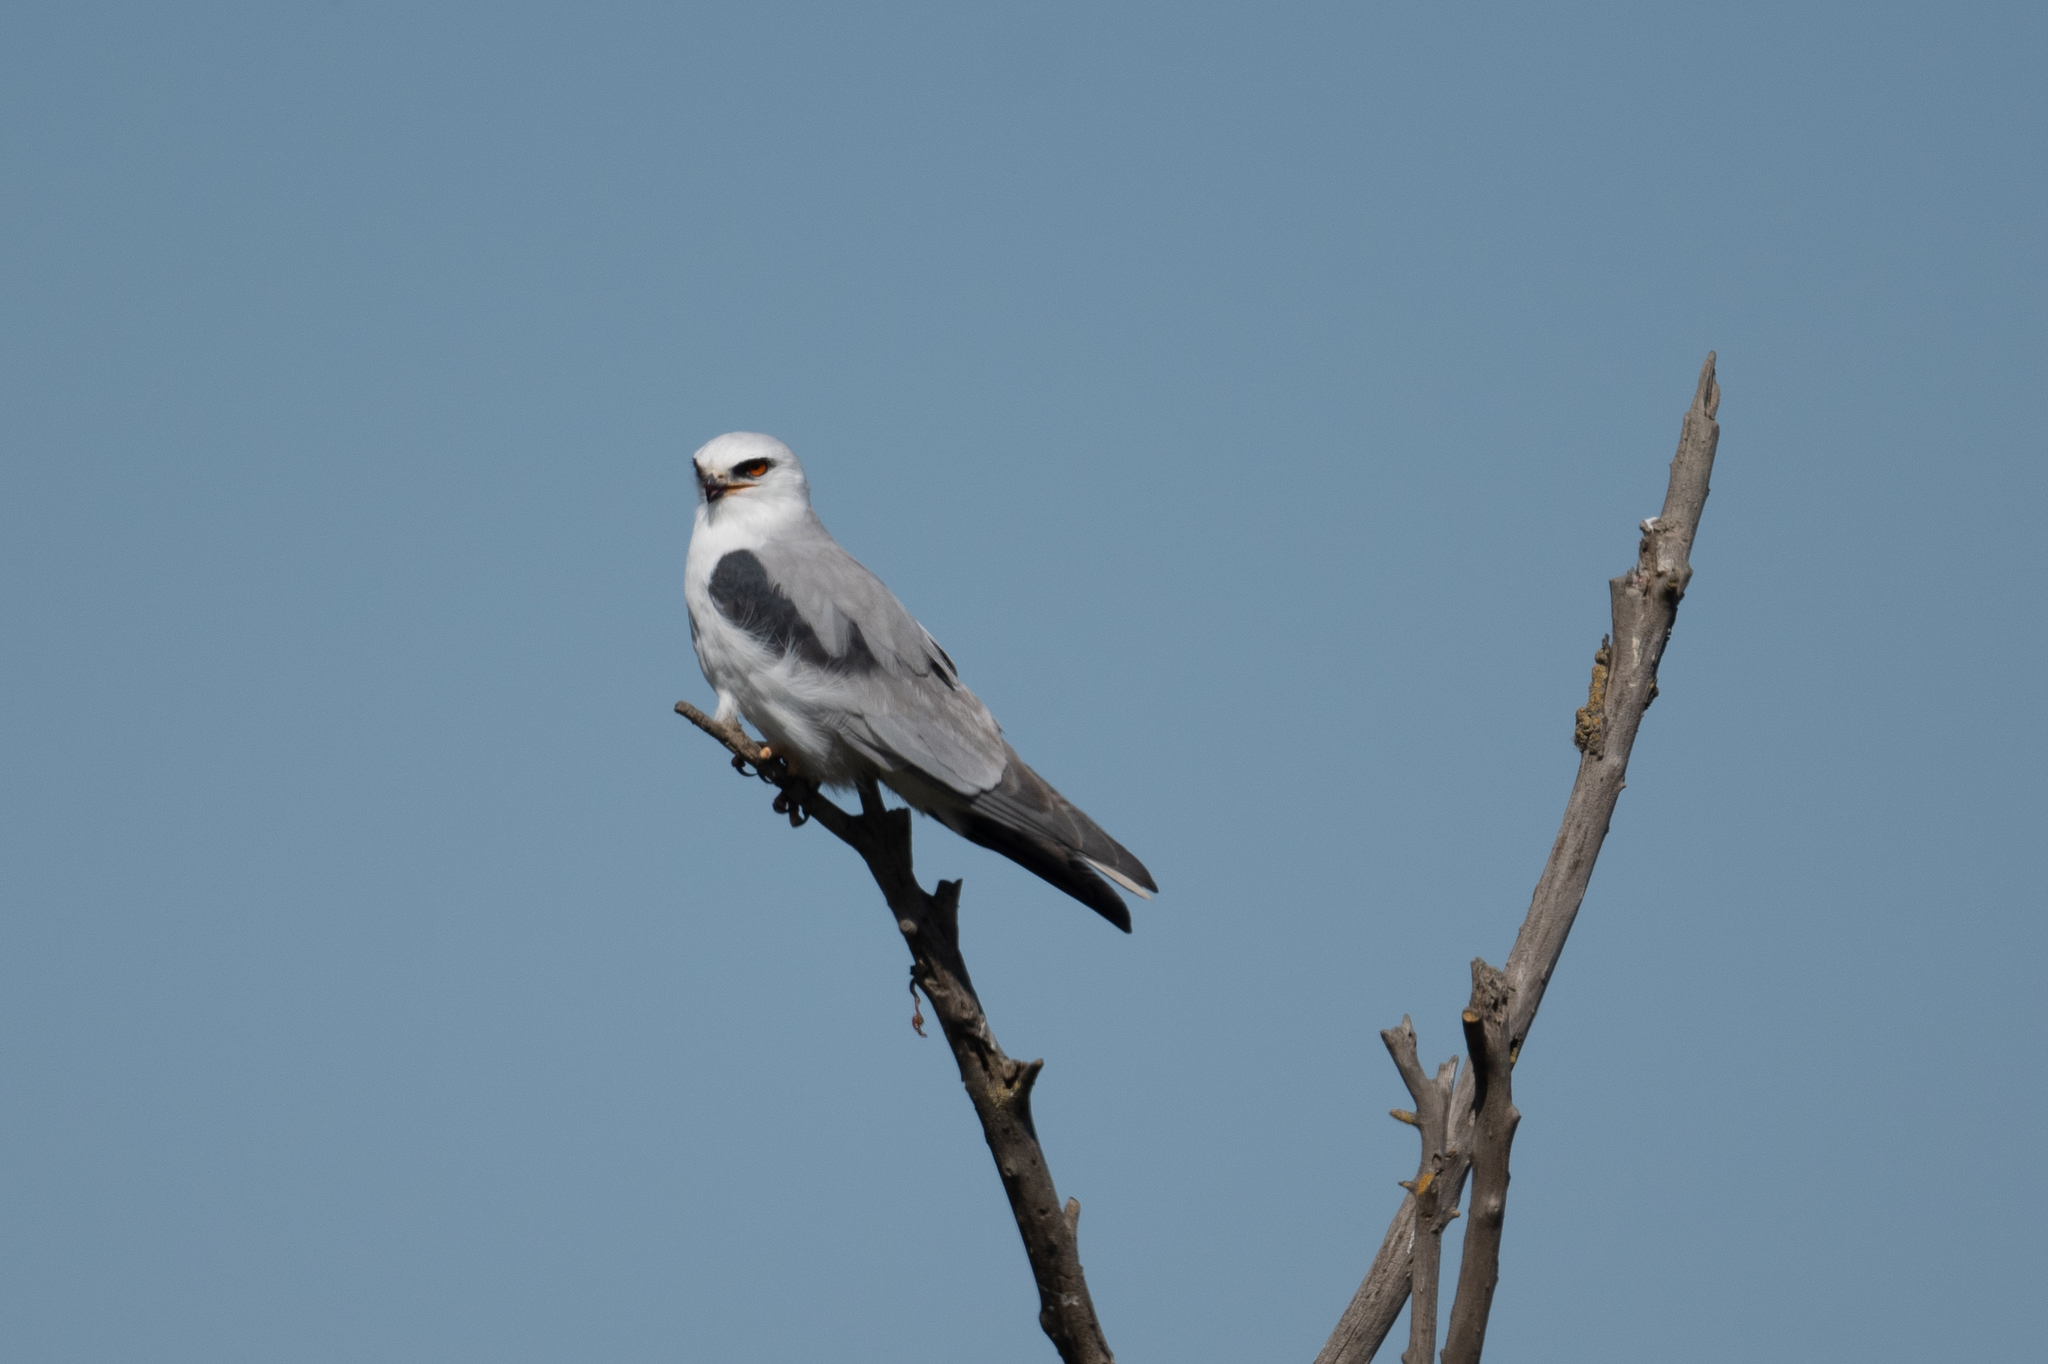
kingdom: Animalia
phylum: Chordata
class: Aves
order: Accipitriformes
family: Accipitridae
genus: Elanus
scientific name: Elanus leucurus
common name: White-tailed kite
